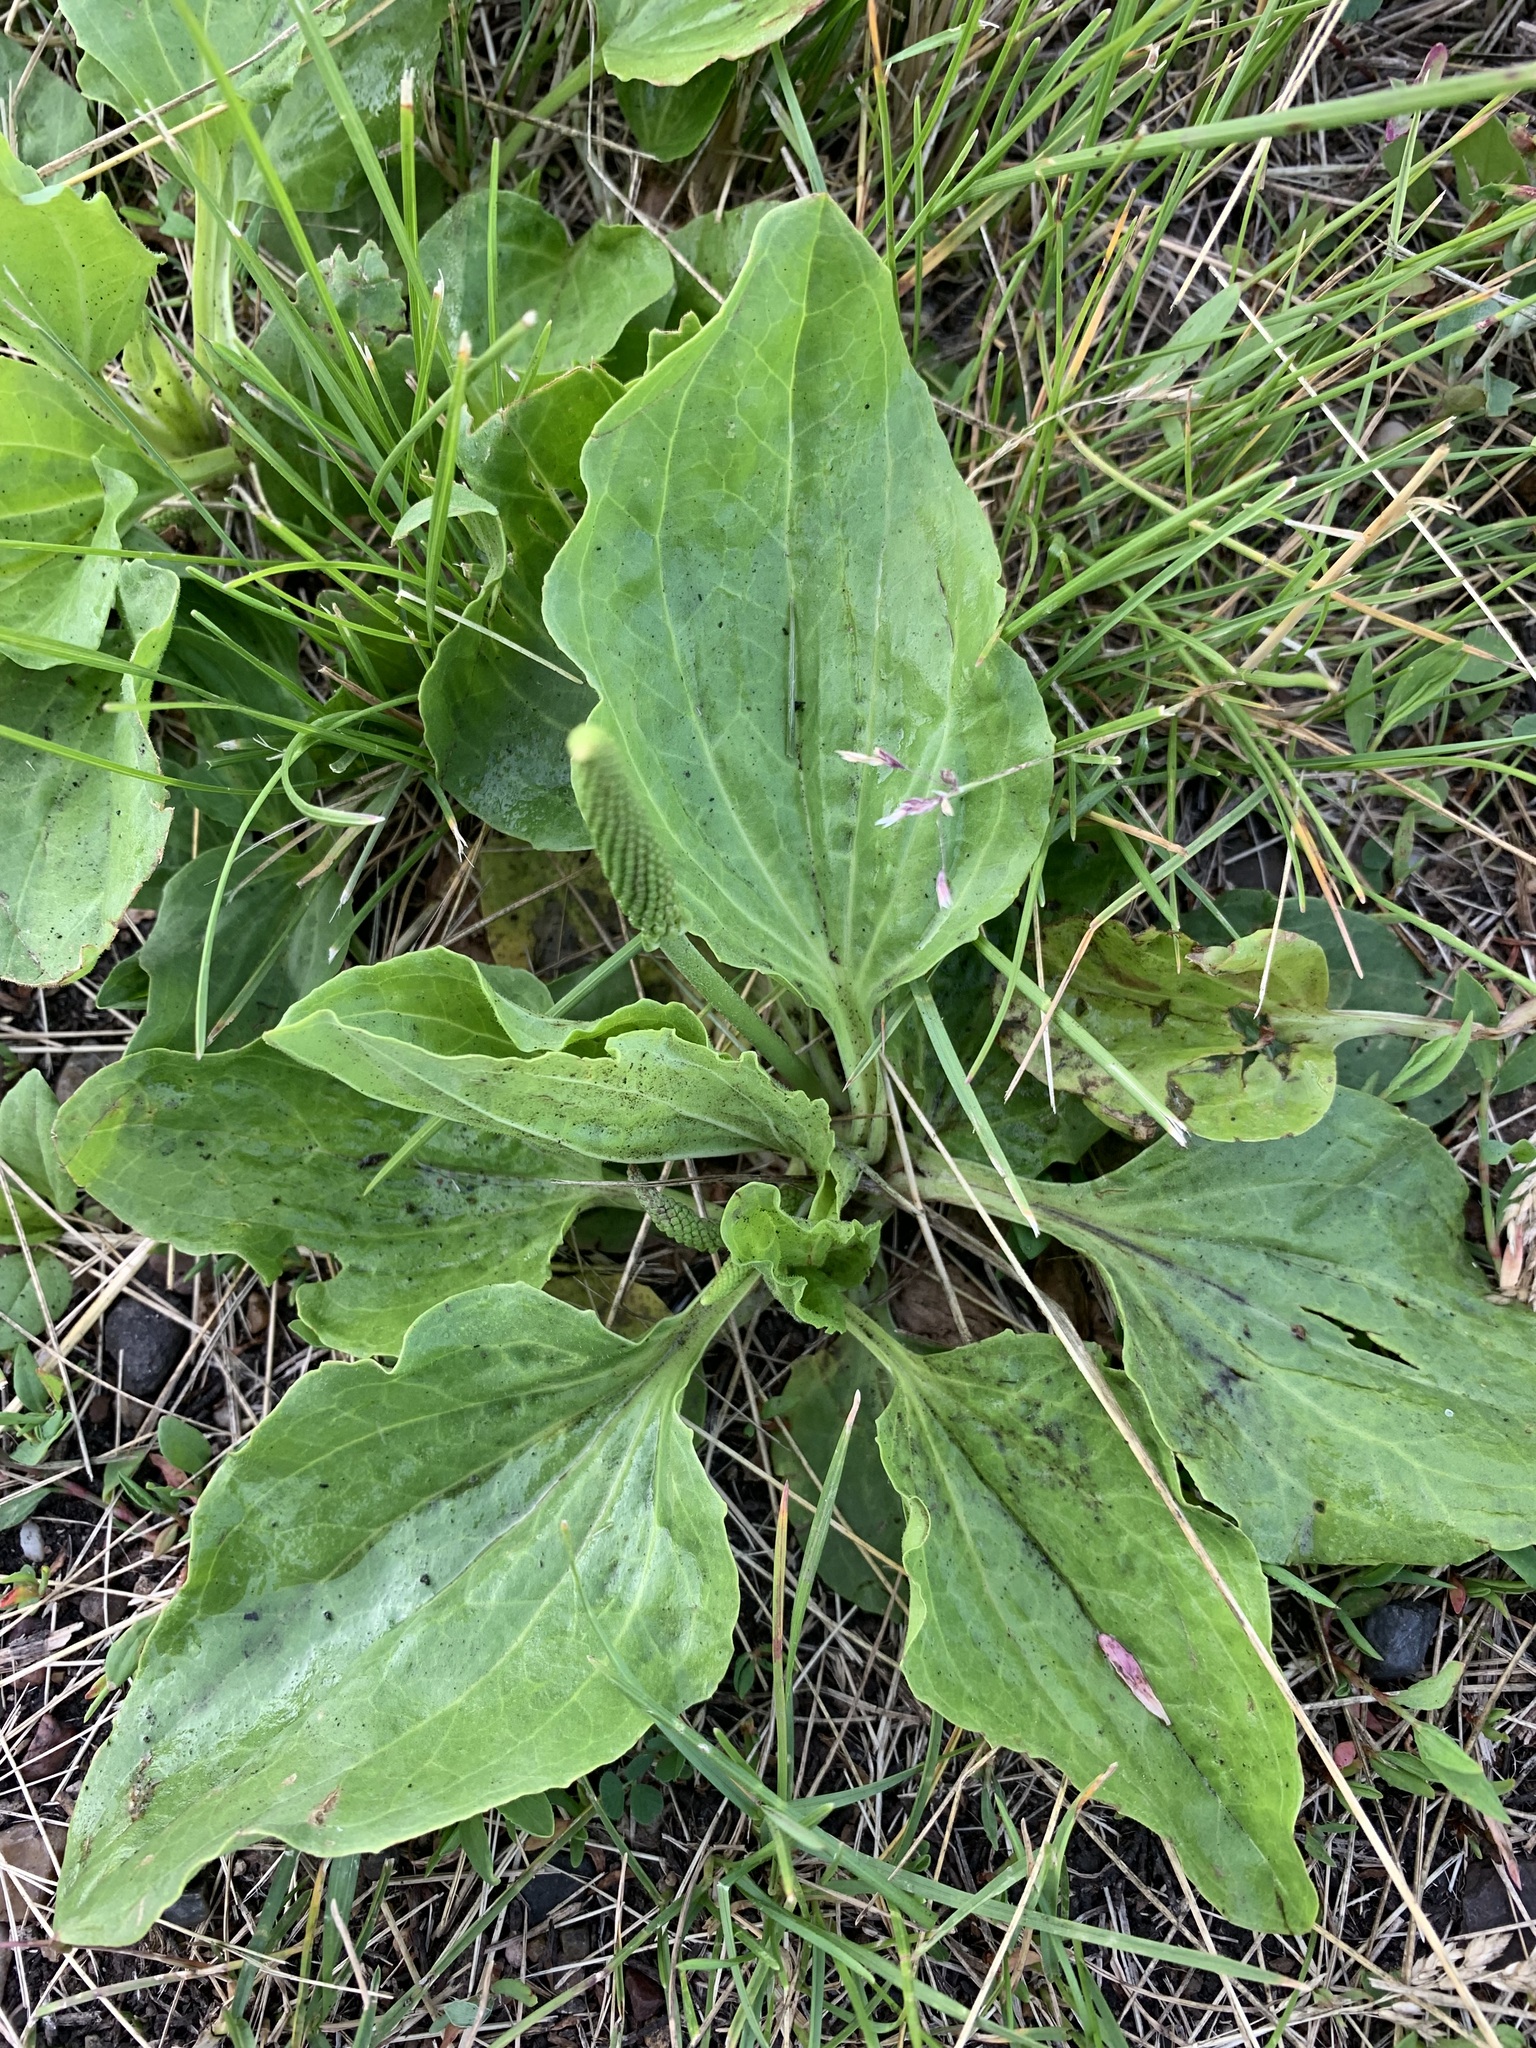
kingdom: Plantae
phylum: Tracheophyta
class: Magnoliopsida
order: Lamiales
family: Plantaginaceae
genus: Plantago
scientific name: Plantago major
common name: Common plantain
